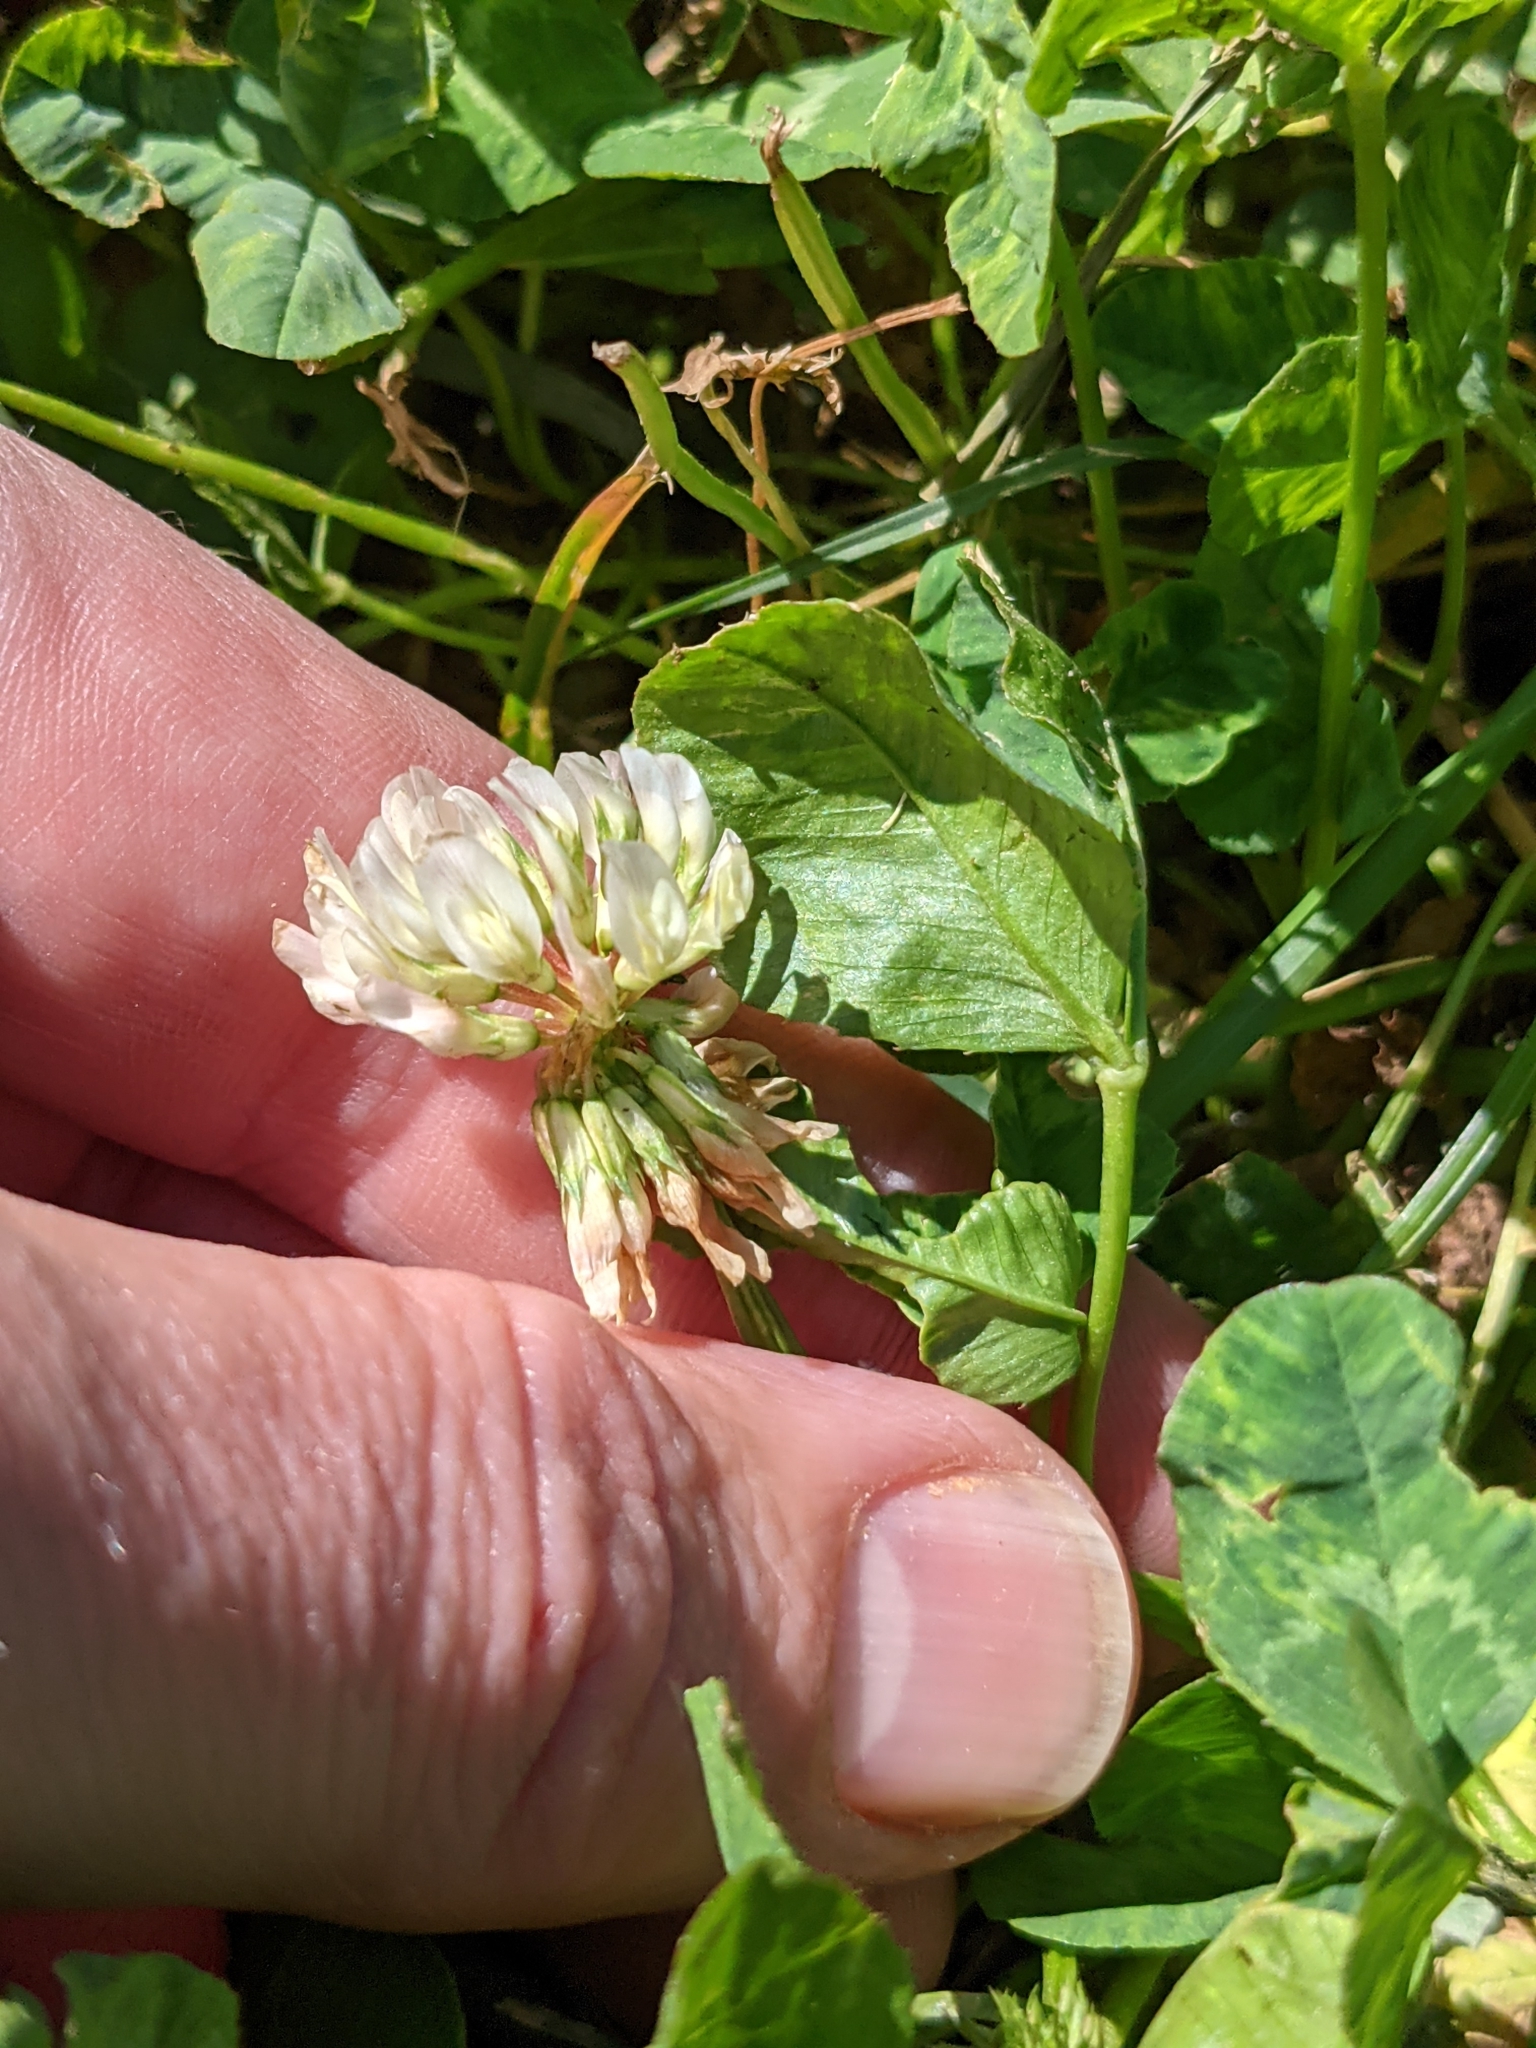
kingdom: Plantae
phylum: Tracheophyta
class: Magnoliopsida
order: Fabales
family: Fabaceae
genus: Trifolium
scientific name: Trifolium repens
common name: White clover
